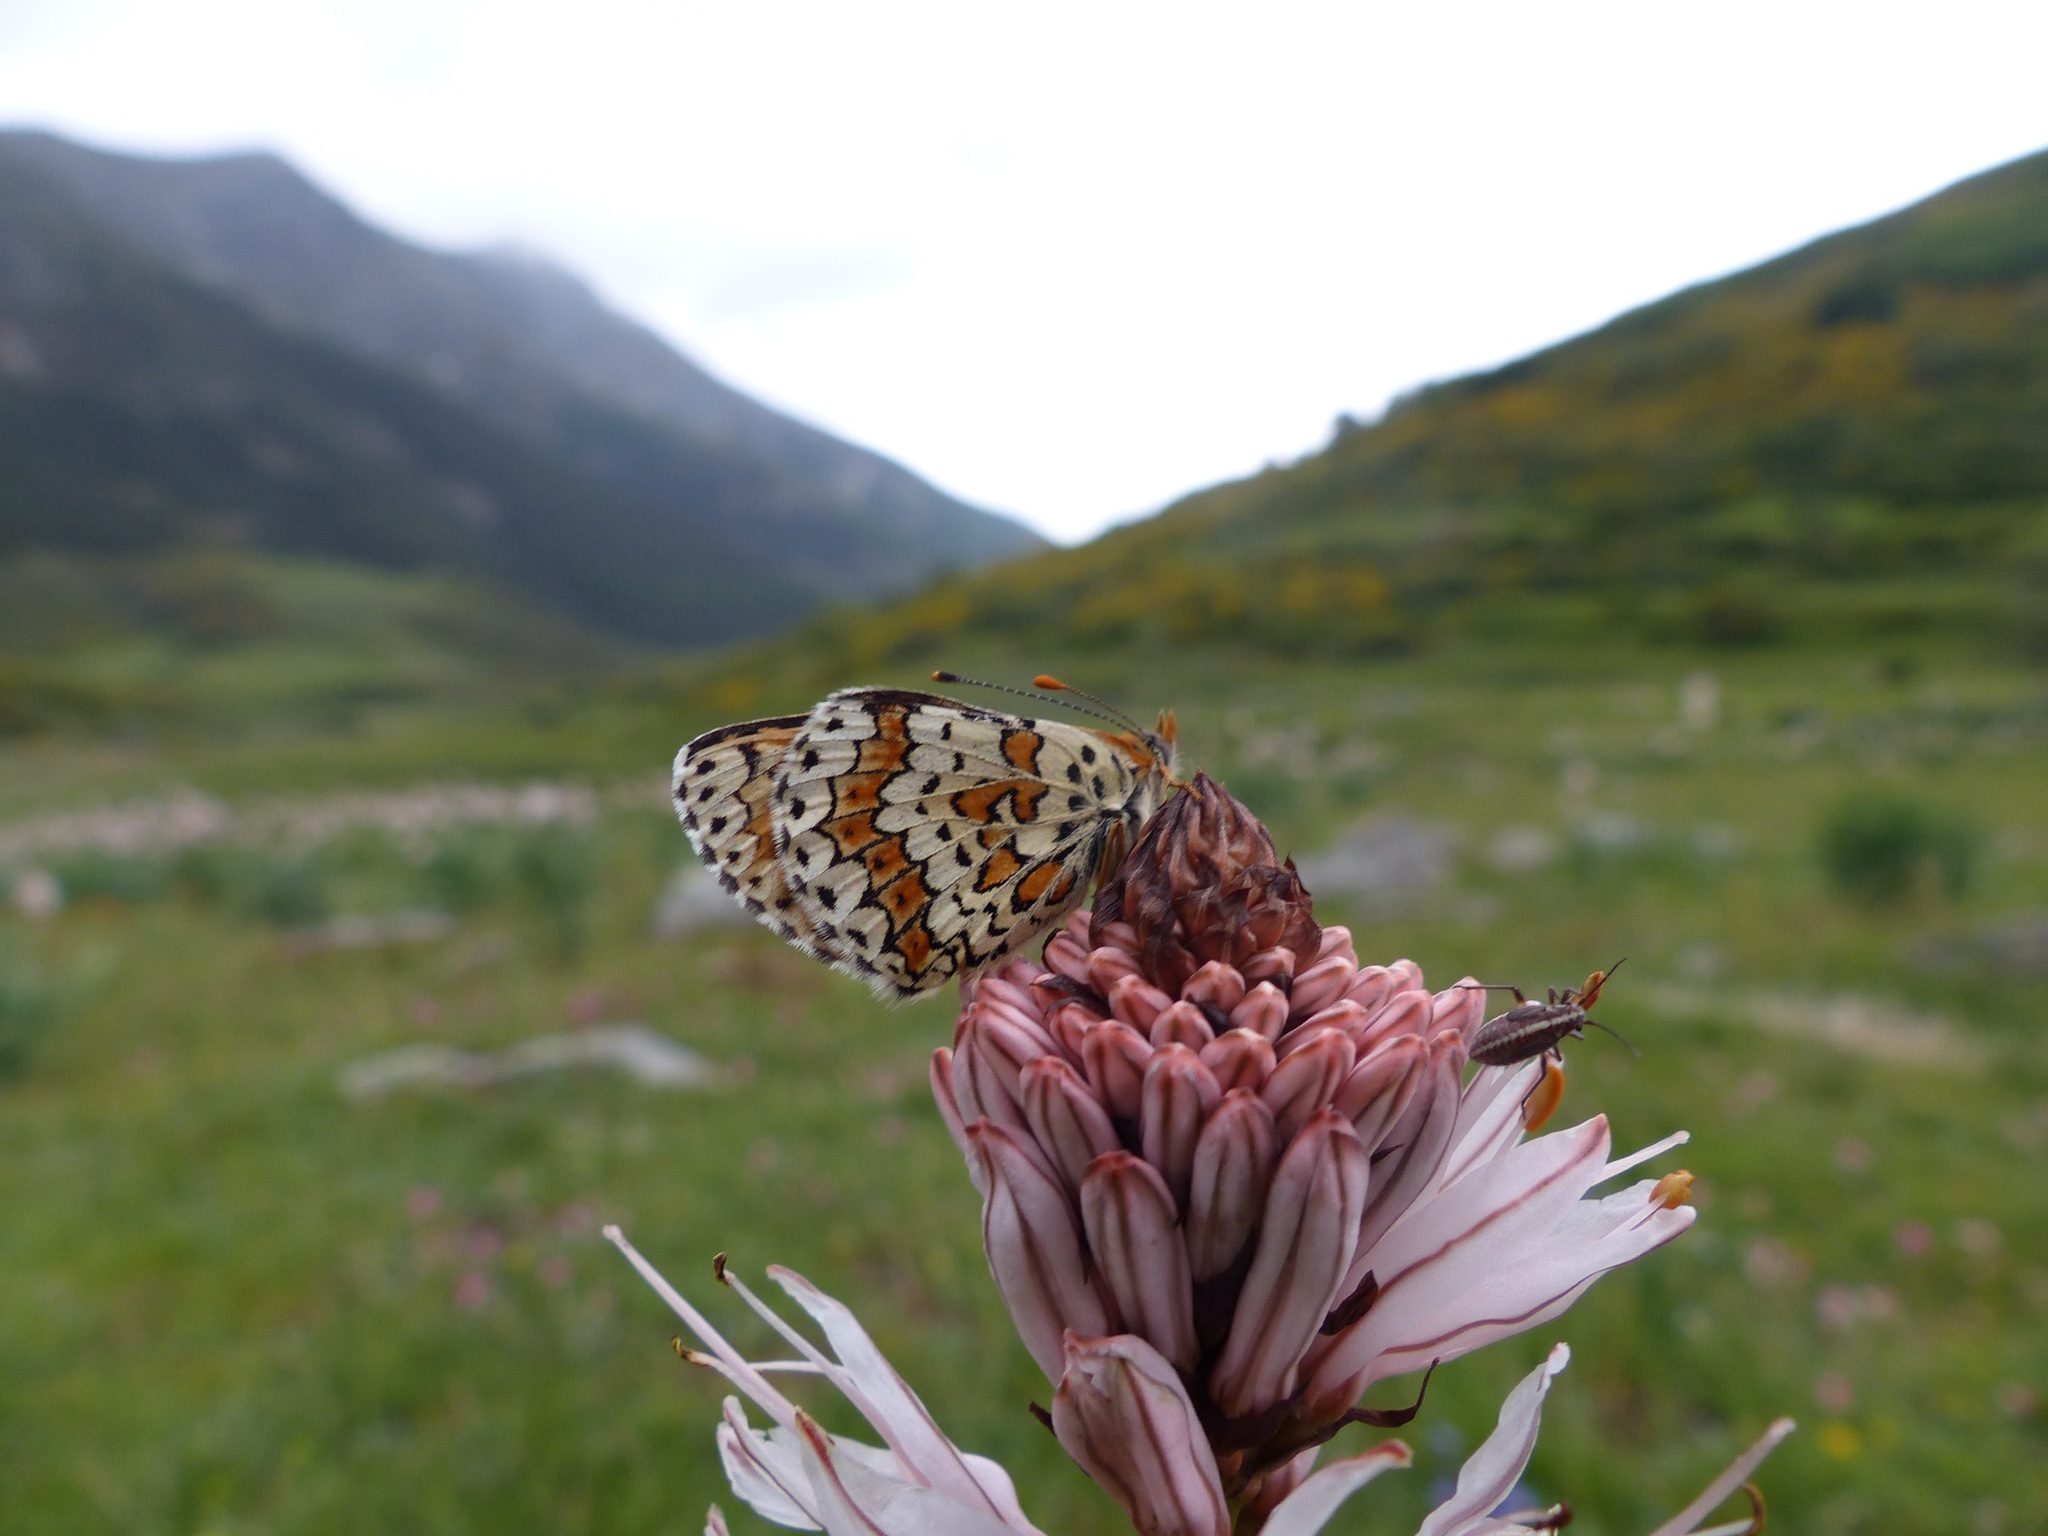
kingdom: Animalia
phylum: Arthropoda
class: Insecta
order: Lepidoptera
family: Nymphalidae
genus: Melitaea
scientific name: Melitaea cinxia
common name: Glanville fritillary
